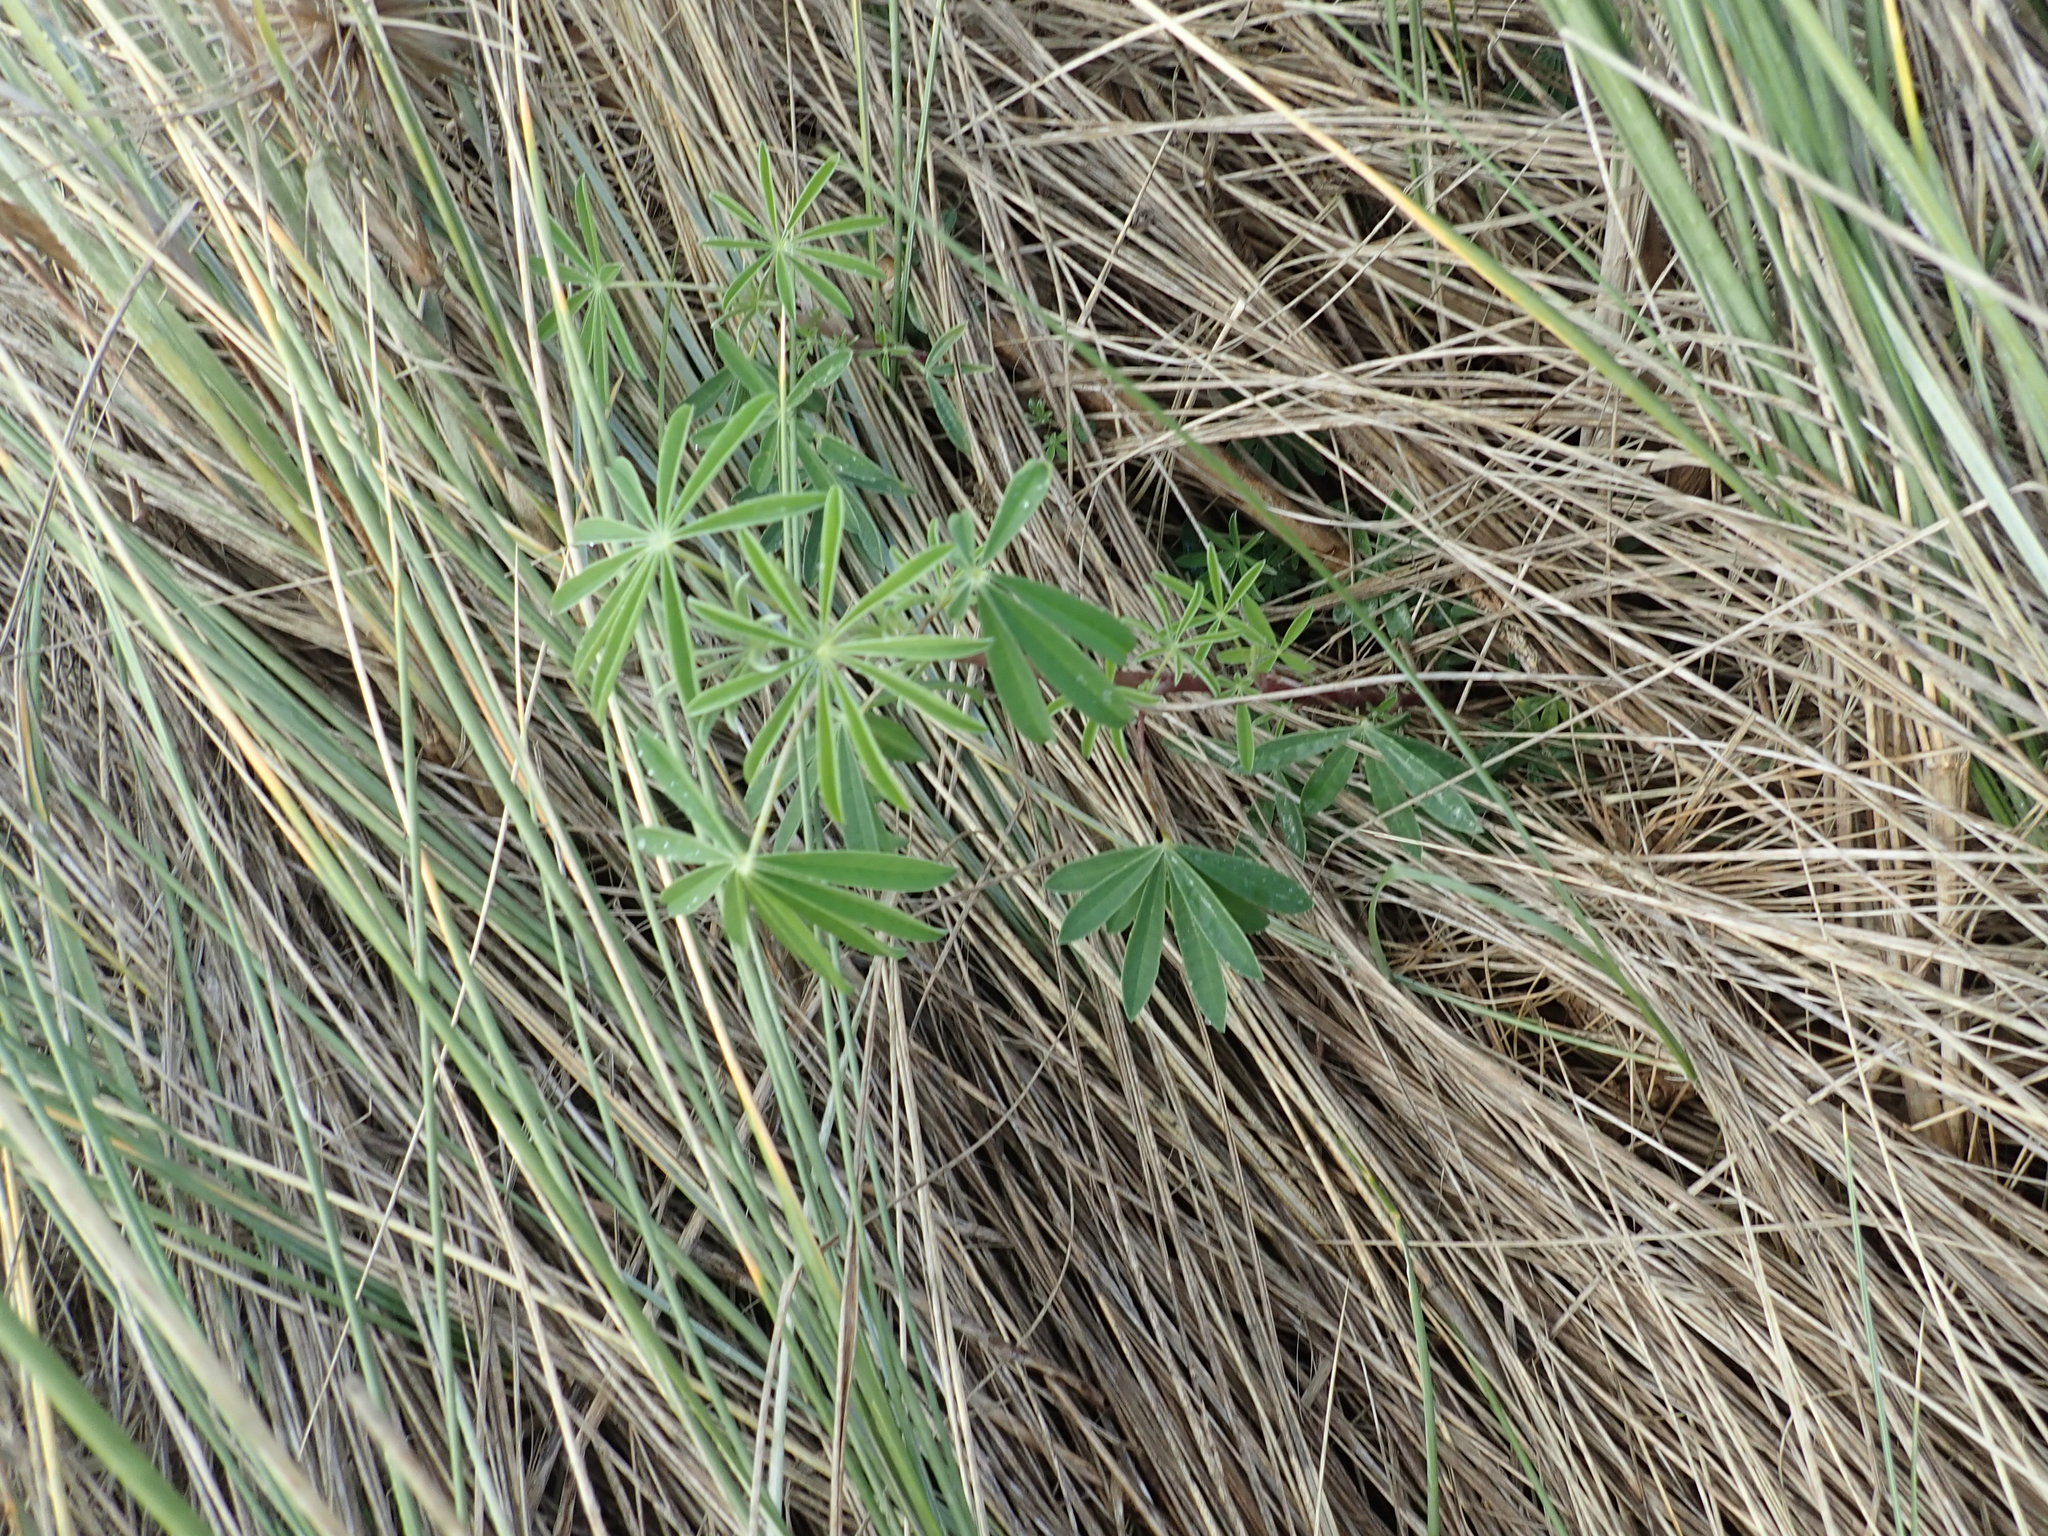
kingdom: Plantae
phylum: Tracheophyta
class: Magnoliopsida
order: Fabales
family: Fabaceae
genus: Lupinus
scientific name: Lupinus arboreus
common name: Yellow bush lupine
